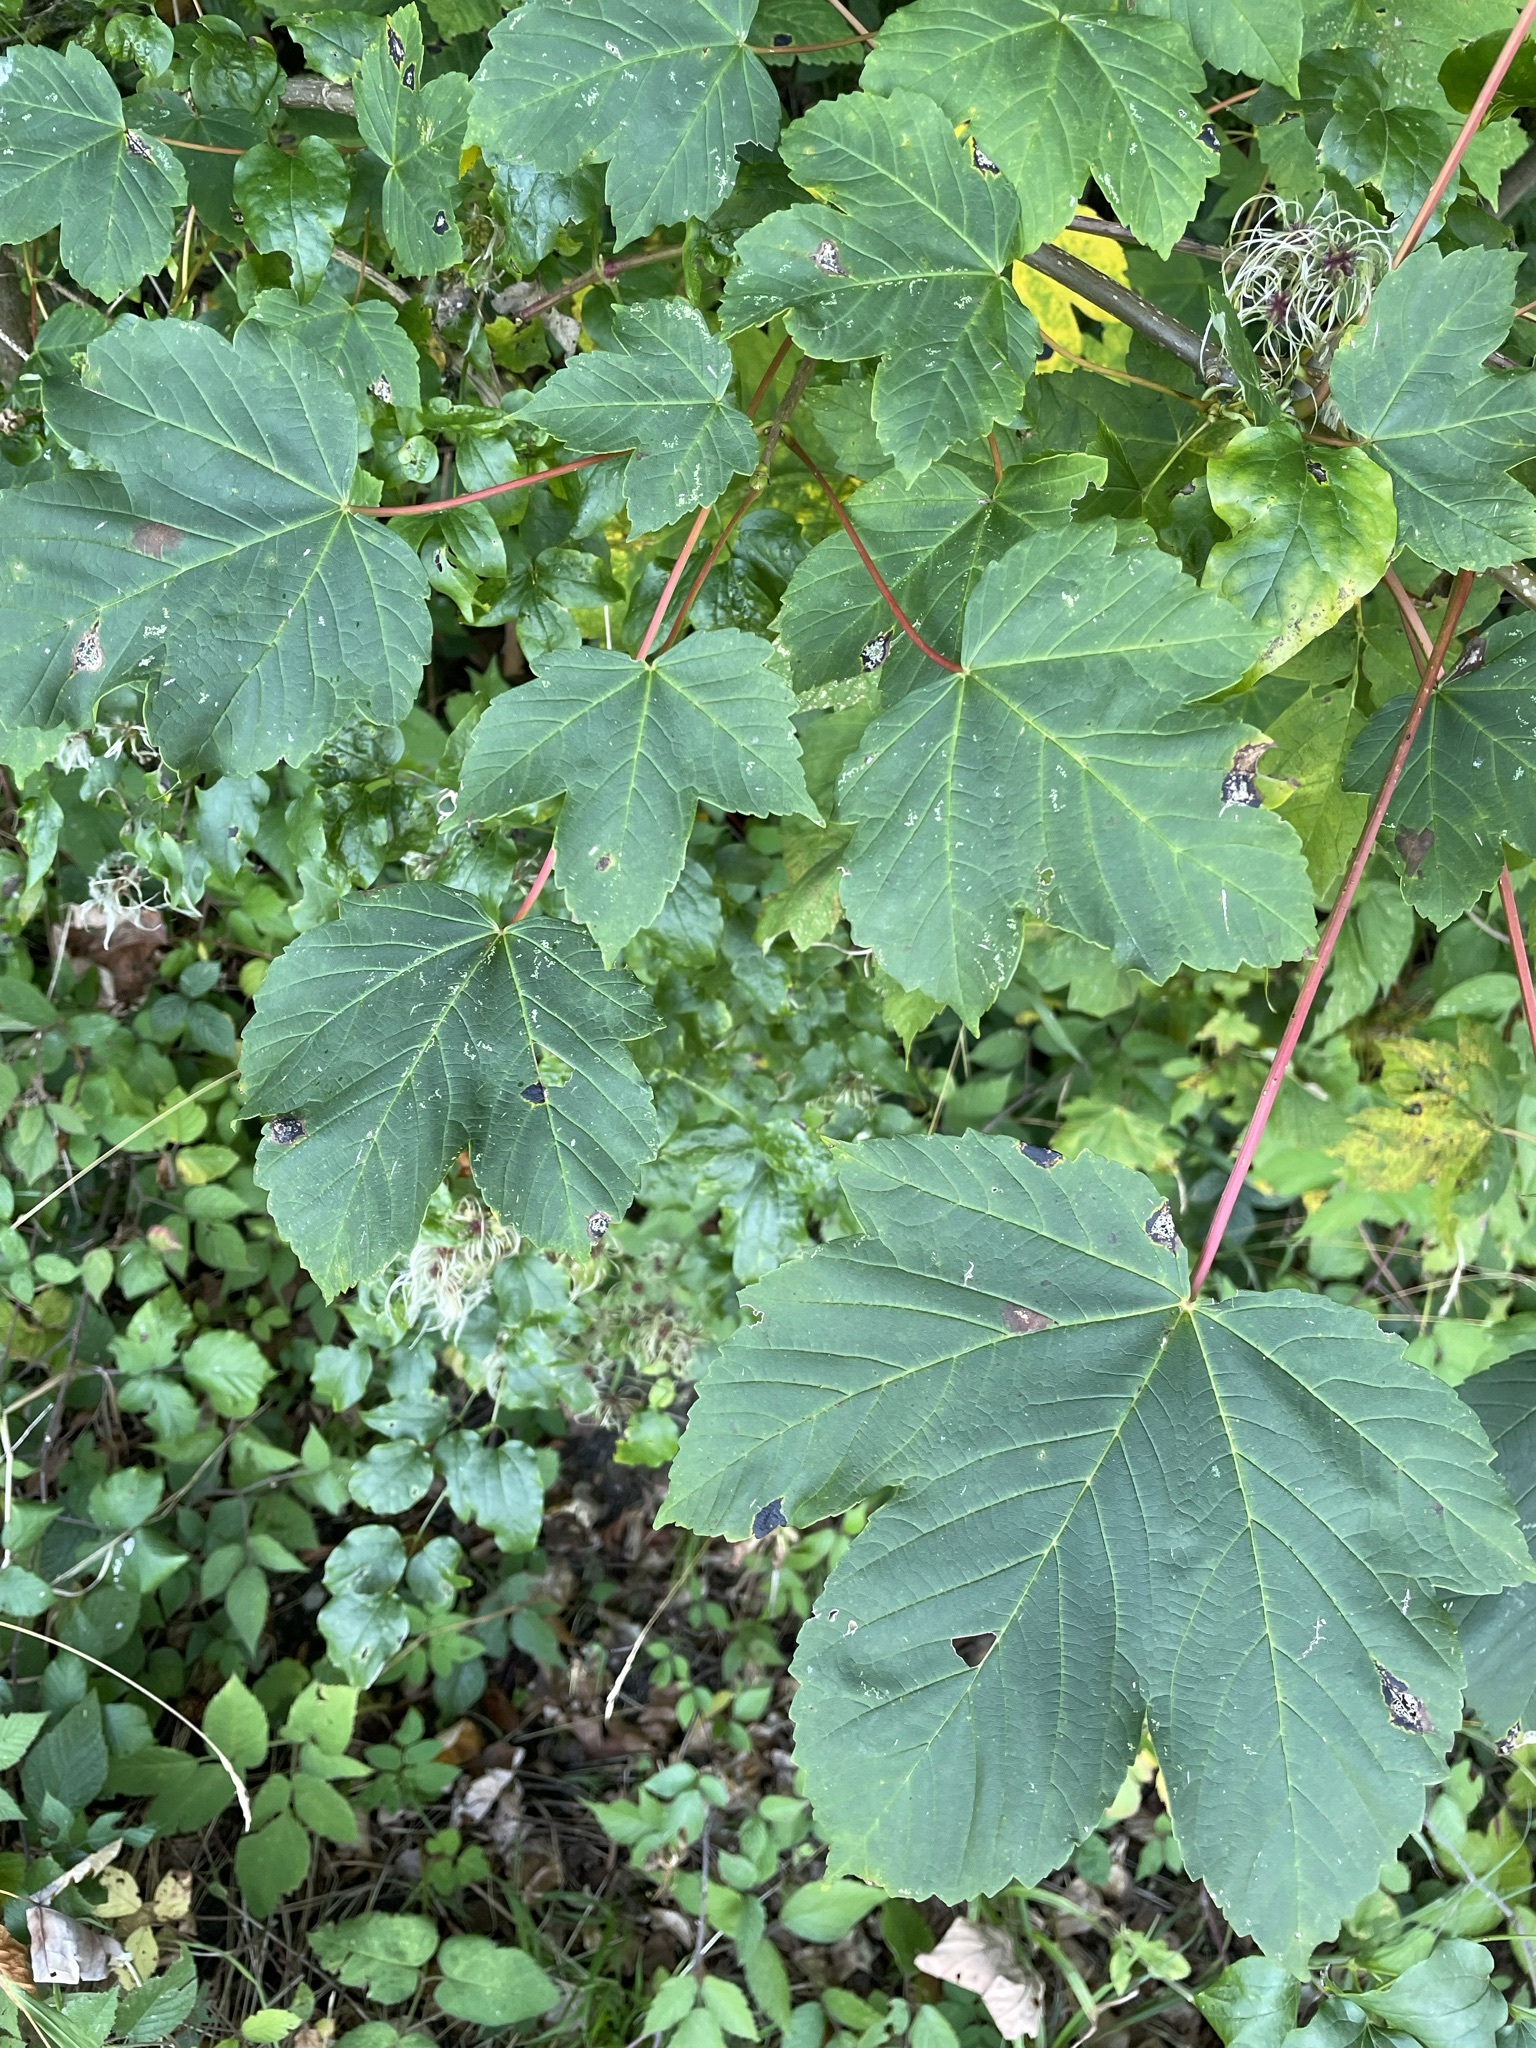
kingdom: Plantae
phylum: Tracheophyta
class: Magnoliopsida
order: Sapindales
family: Sapindaceae
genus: Acer
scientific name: Acer pseudoplatanus
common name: Sycamore
